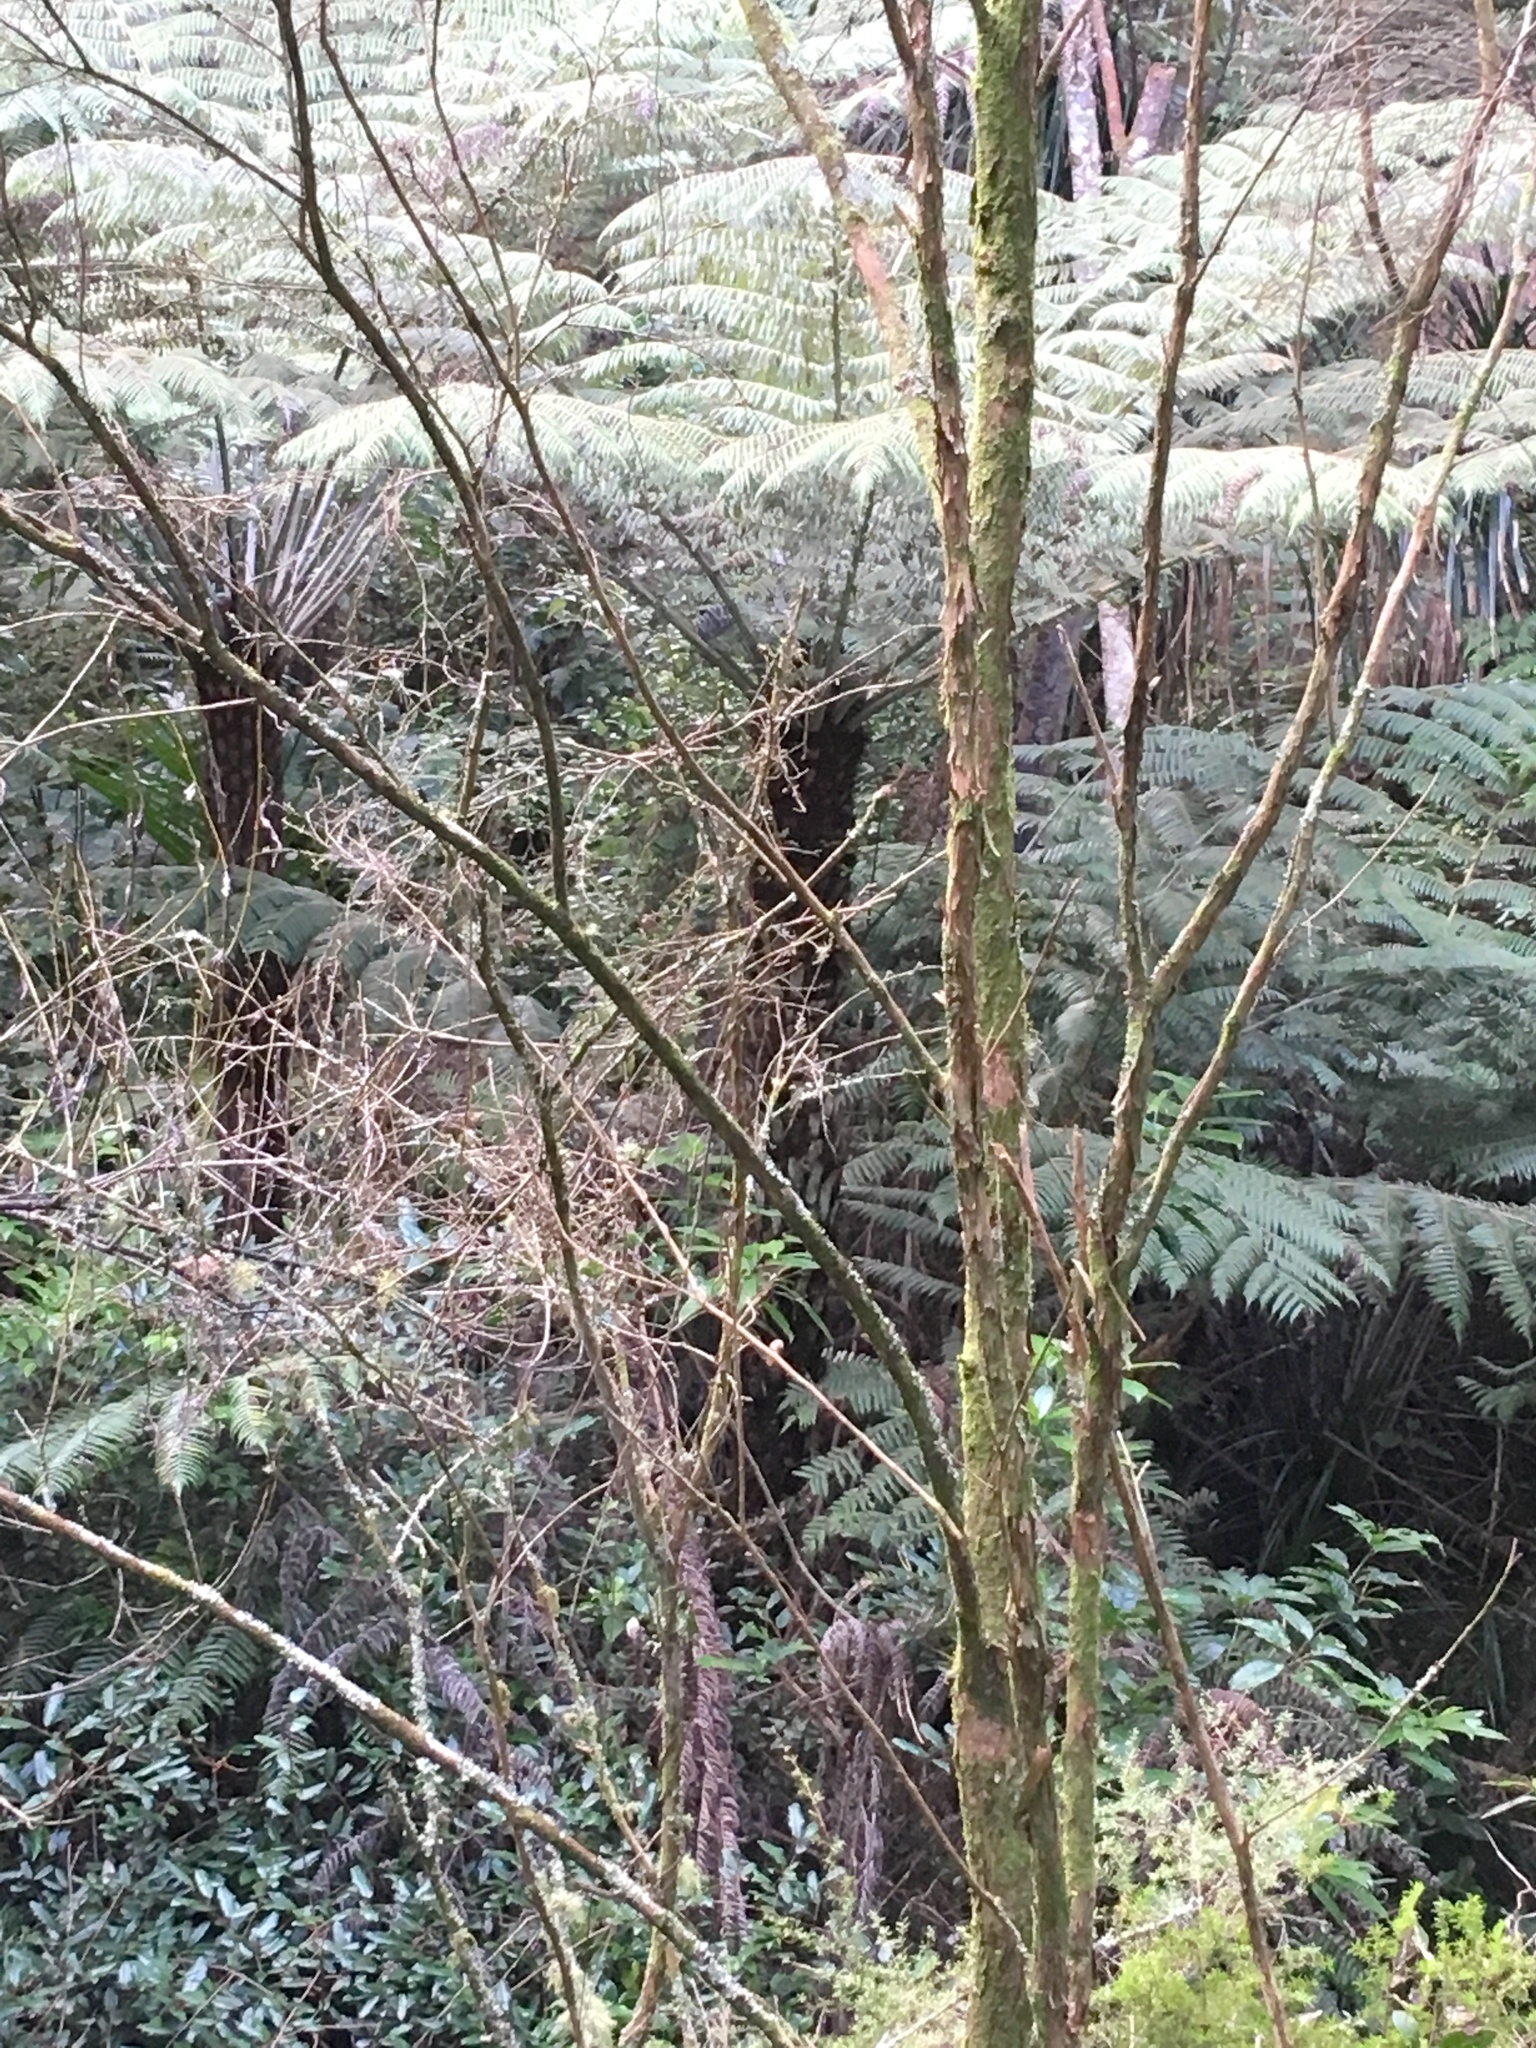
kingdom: Plantae
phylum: Tracheophyta
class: Polypodiopsida
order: Cyatheales
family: Cyatheaceae
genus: Alsophila
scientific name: Alsophila dealbata
